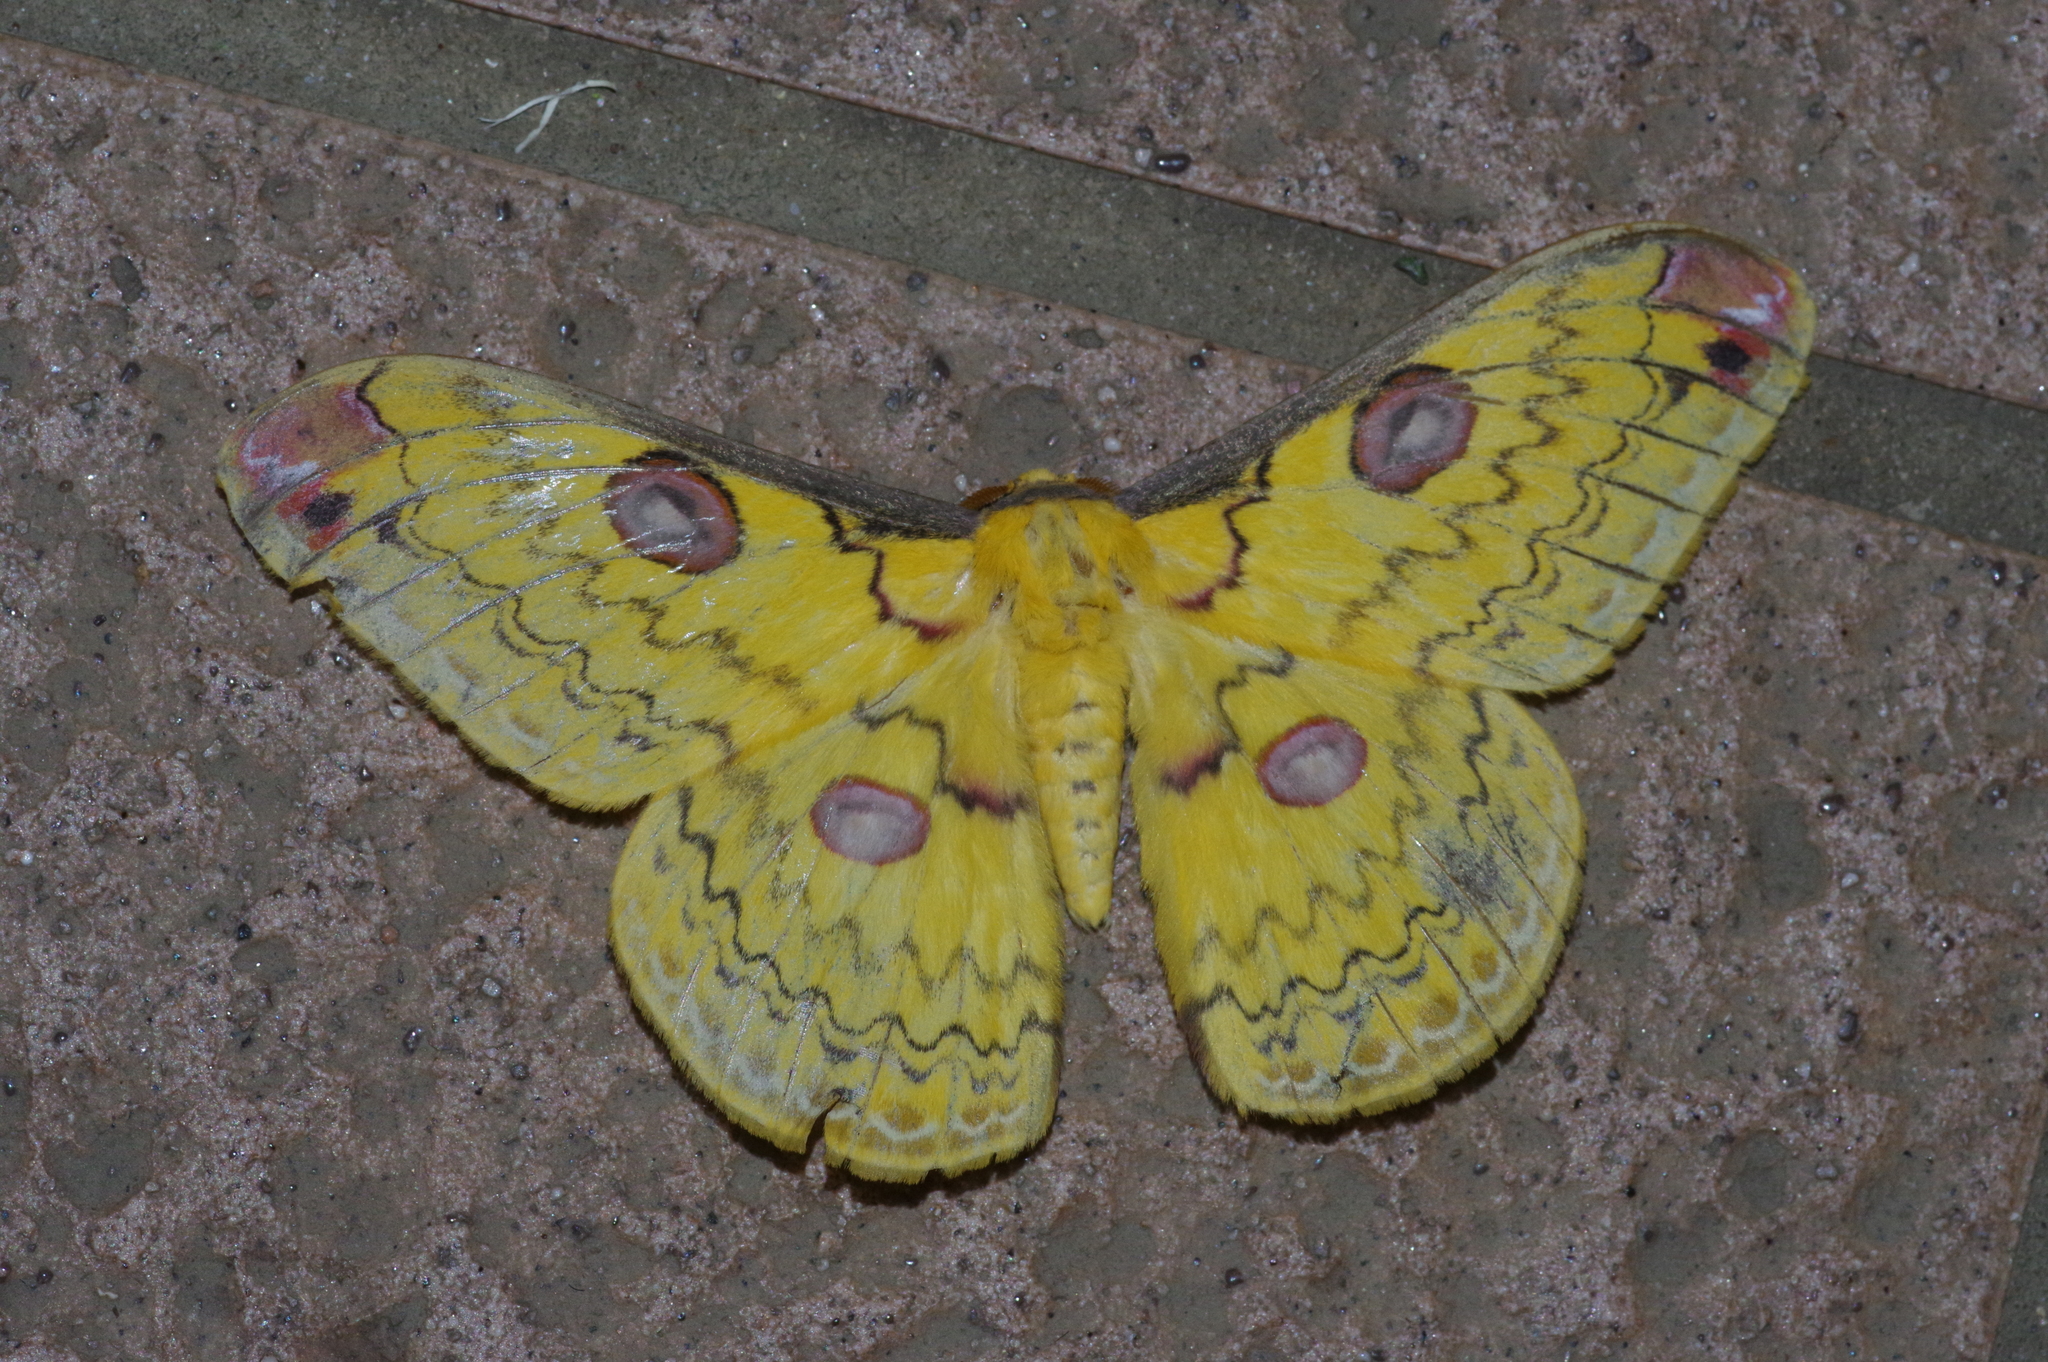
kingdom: Animalia
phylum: Arthropoda
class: Insecta
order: Lepidoptera
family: Saturniidae
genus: Loepa
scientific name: Loepa sakaei
